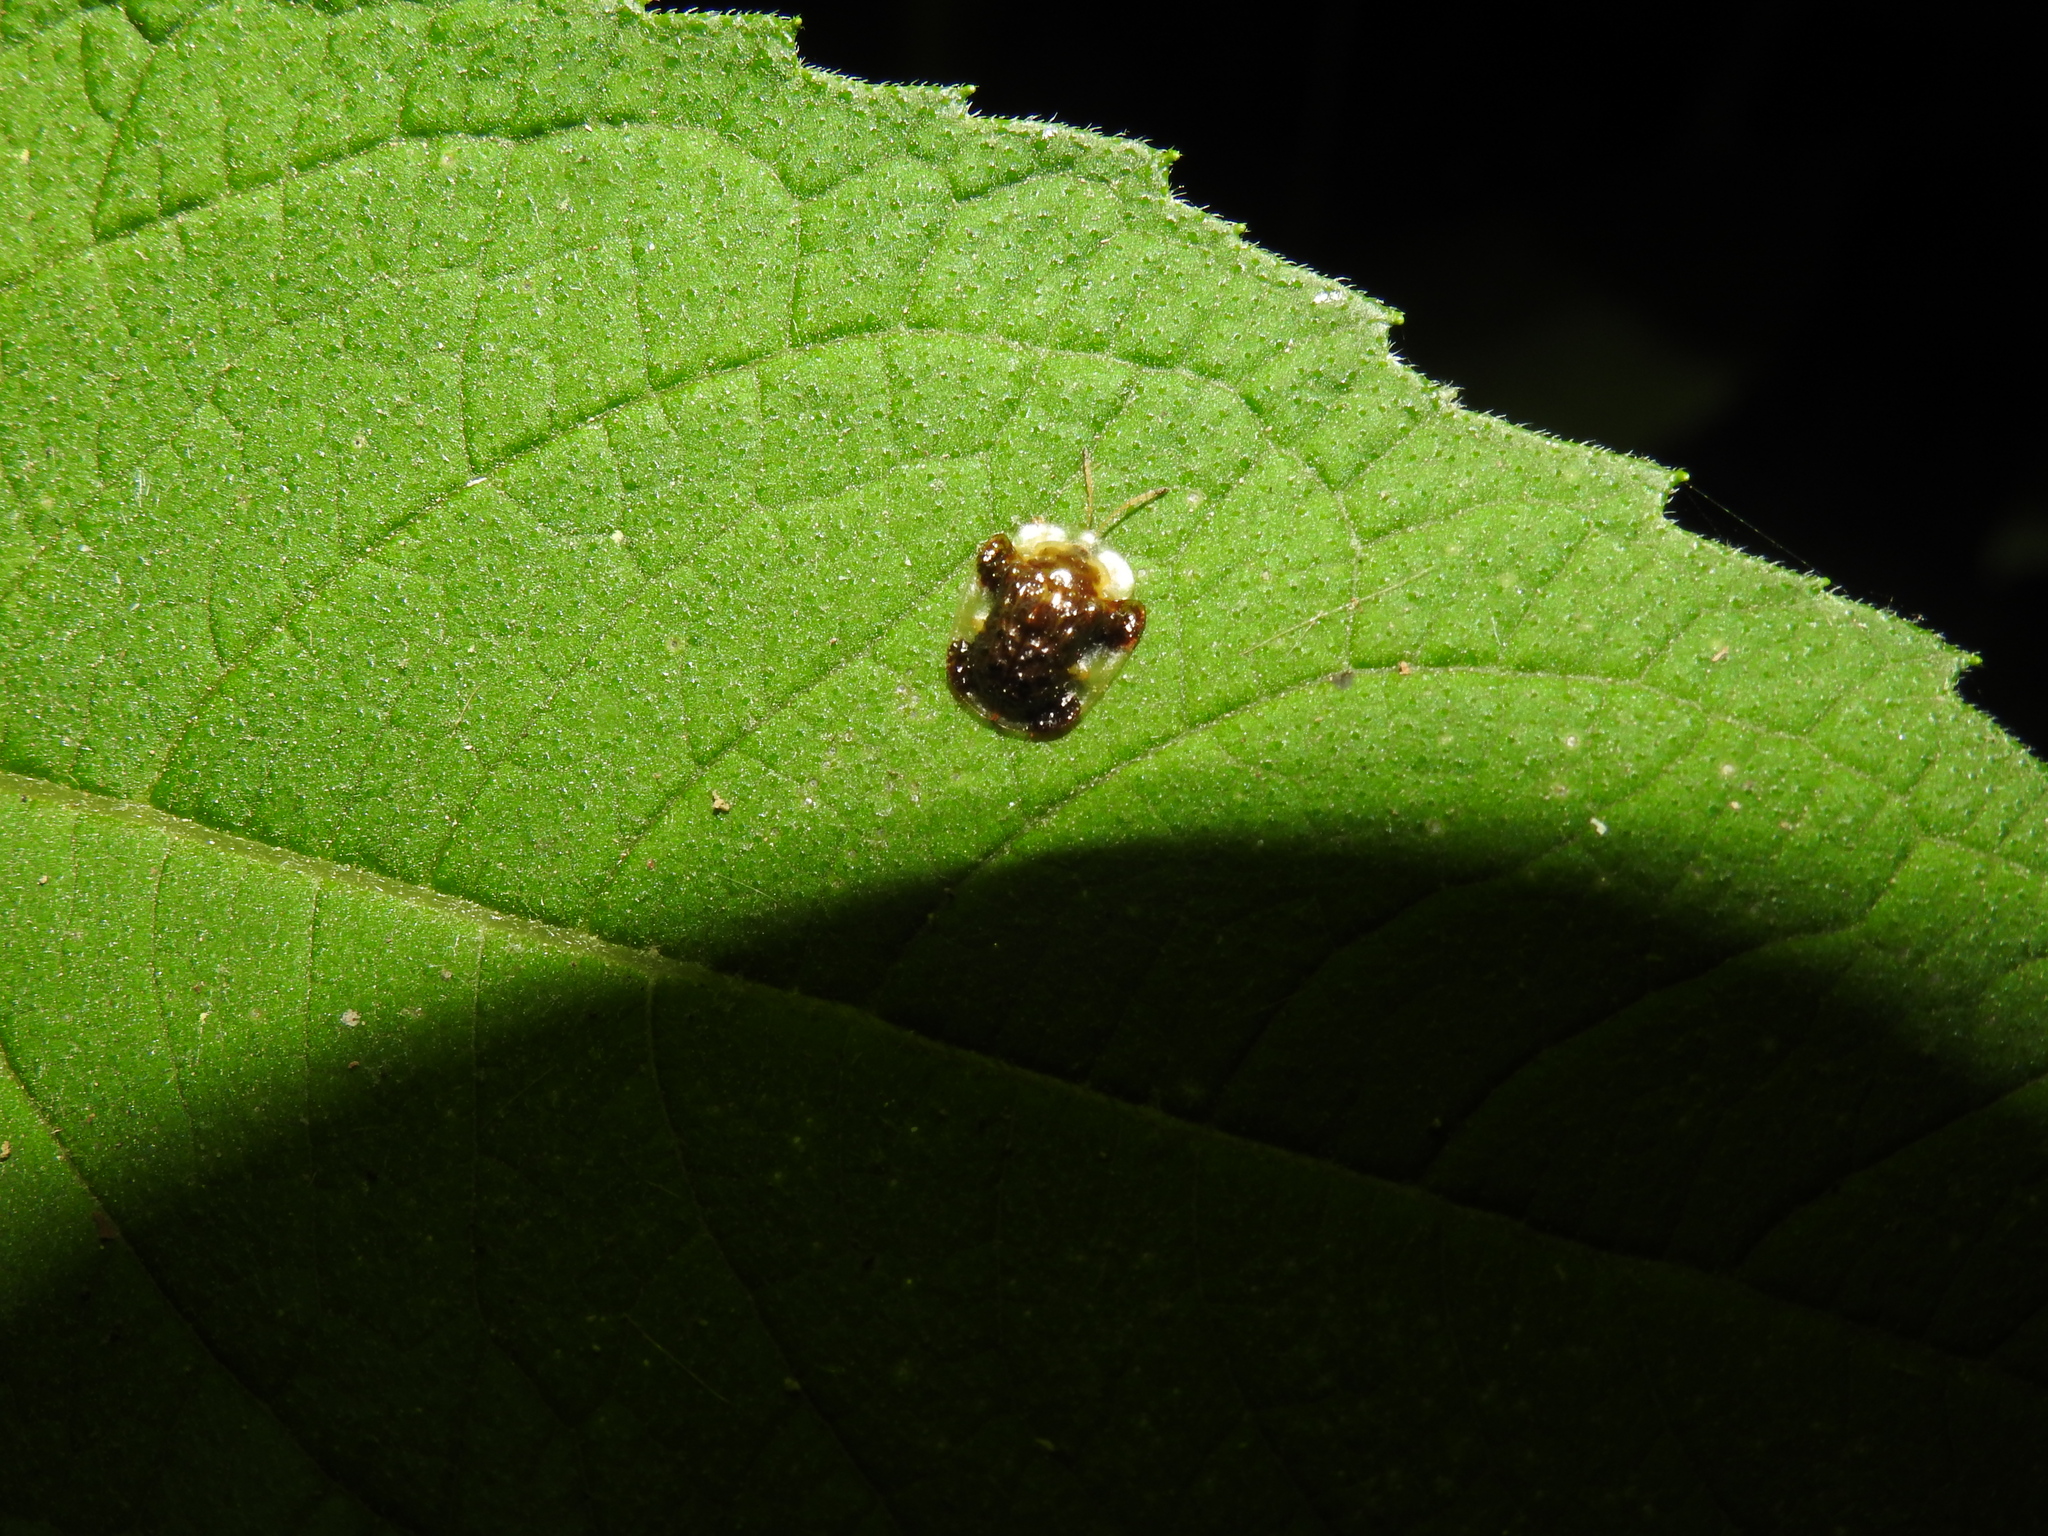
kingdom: Animalia
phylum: Arthropoda
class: Insecta
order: Coleoptera
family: Chrysomelidae
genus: Helocassis
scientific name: Helocassis clavata
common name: Clavate tortoise beetle
